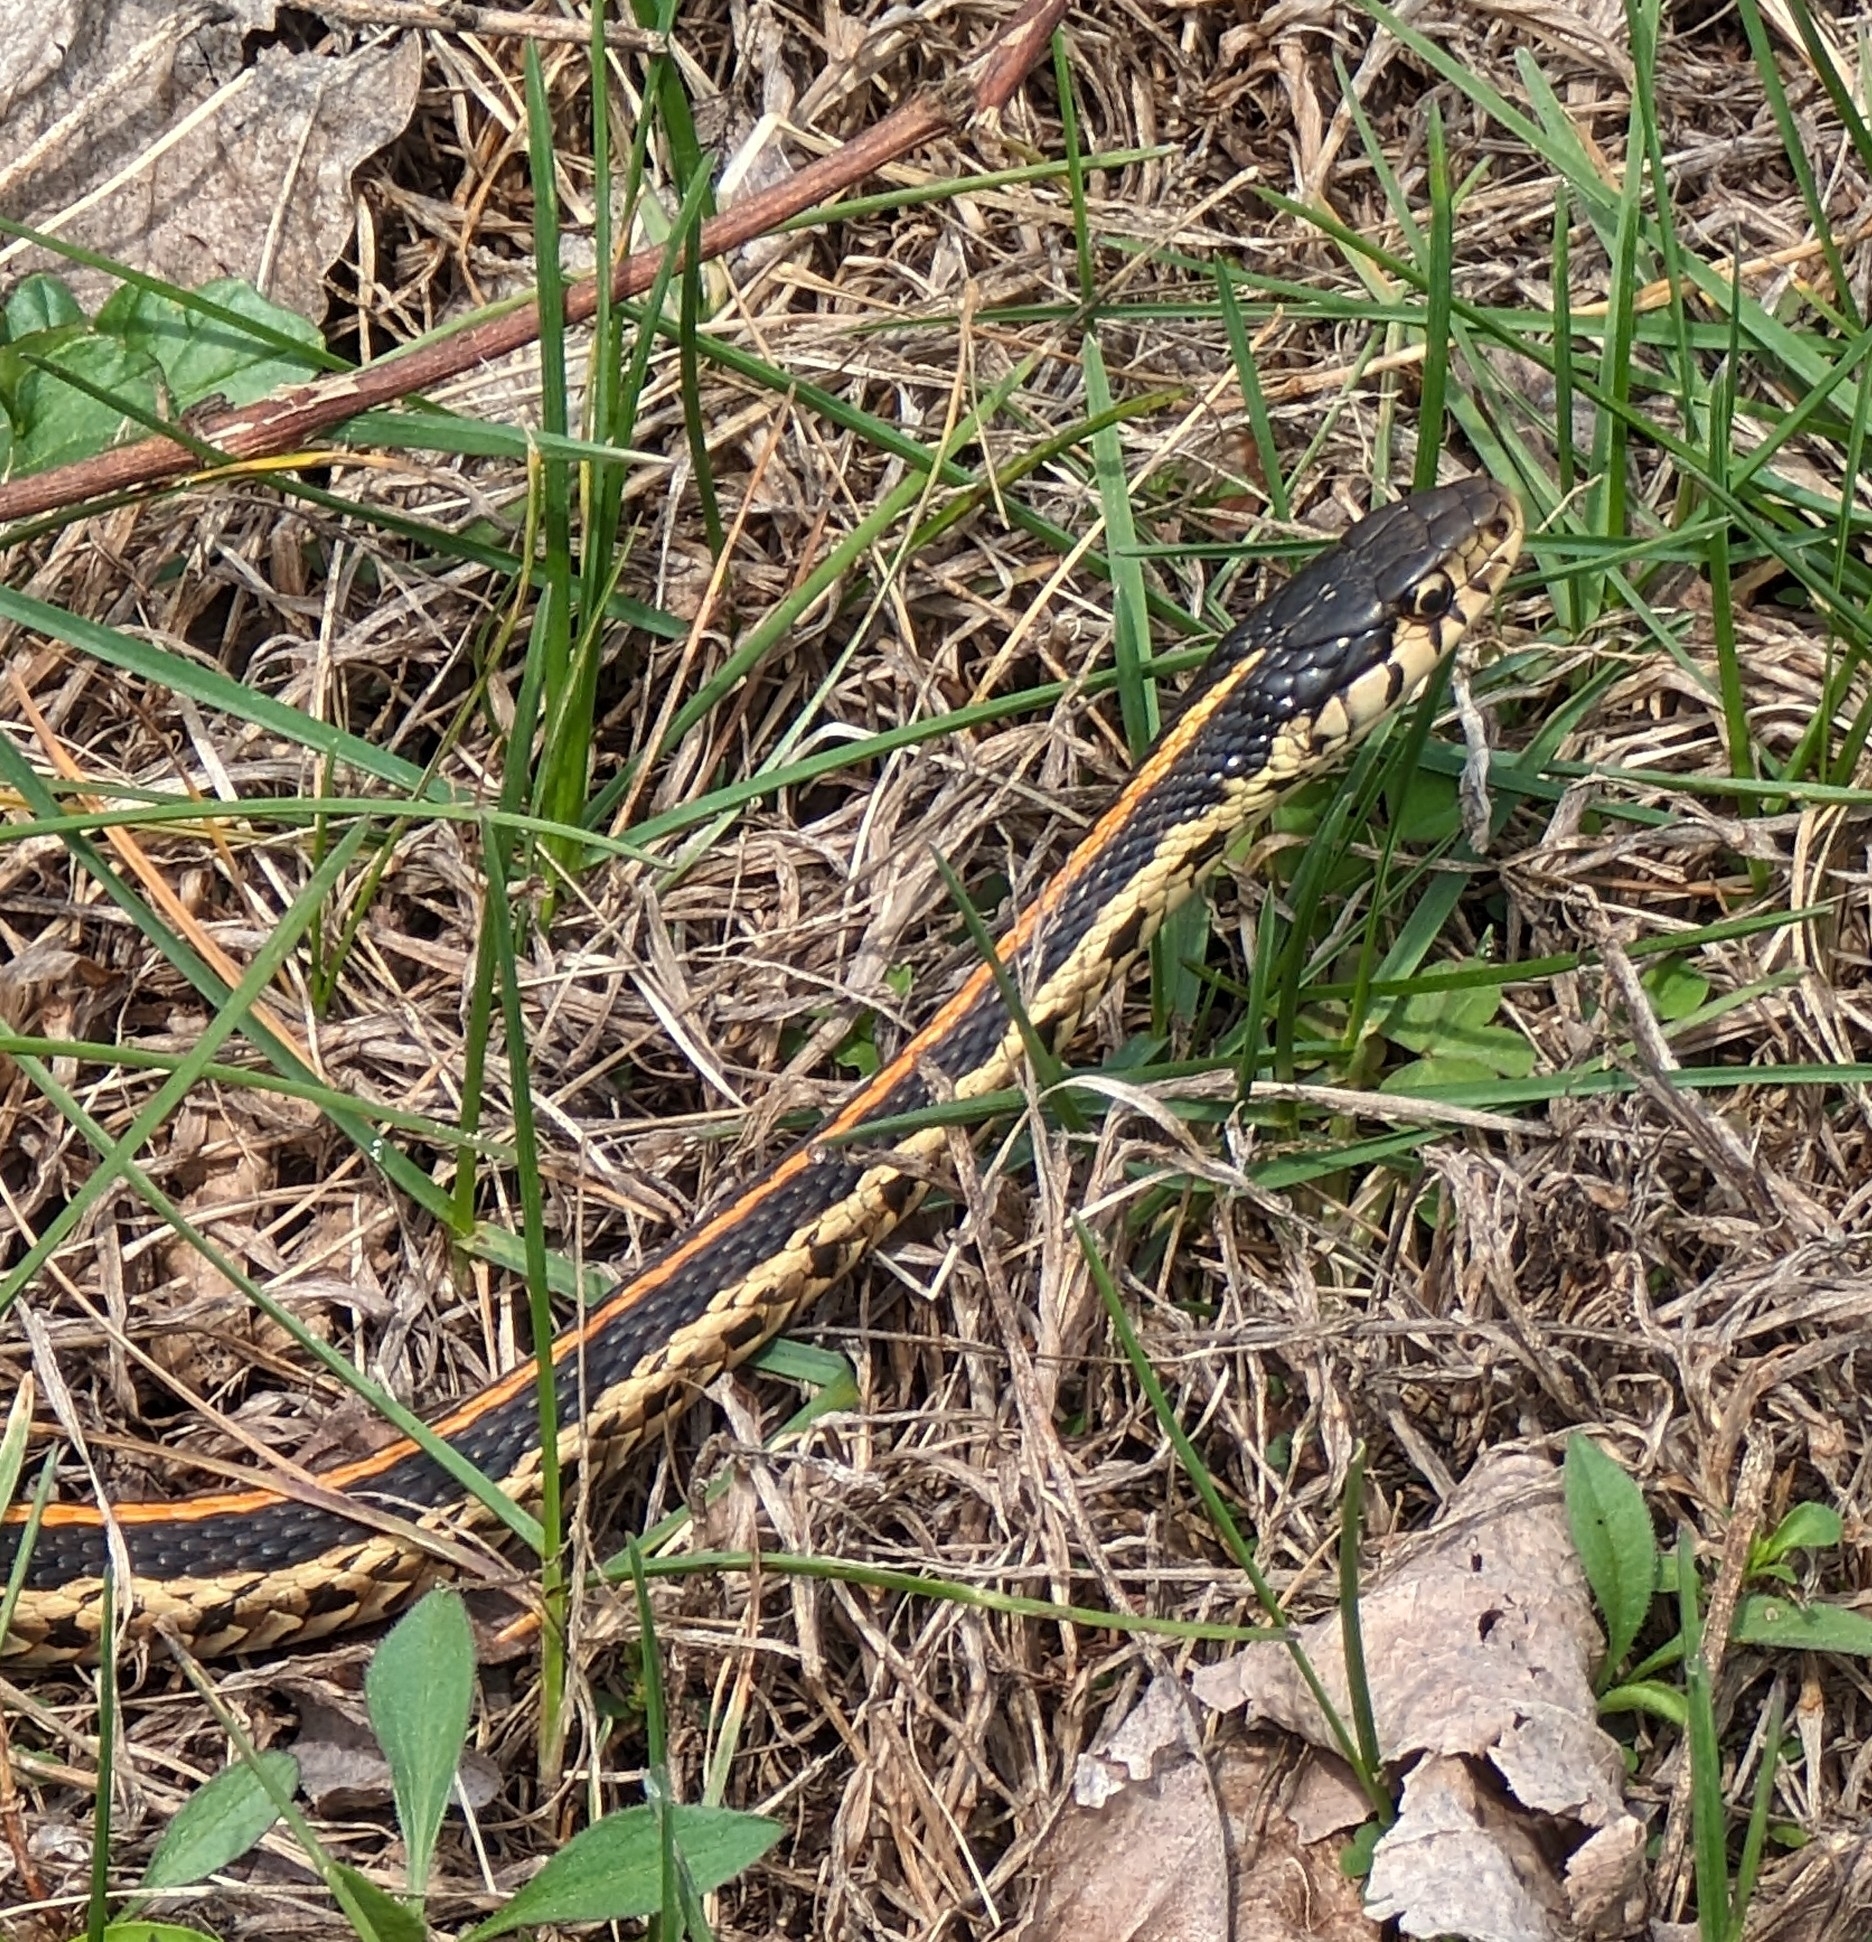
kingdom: Animalia
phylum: Chordata
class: Squamata
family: Colubridae
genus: Thamnophis
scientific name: Thamnophis sirtalis
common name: Common garter snake
